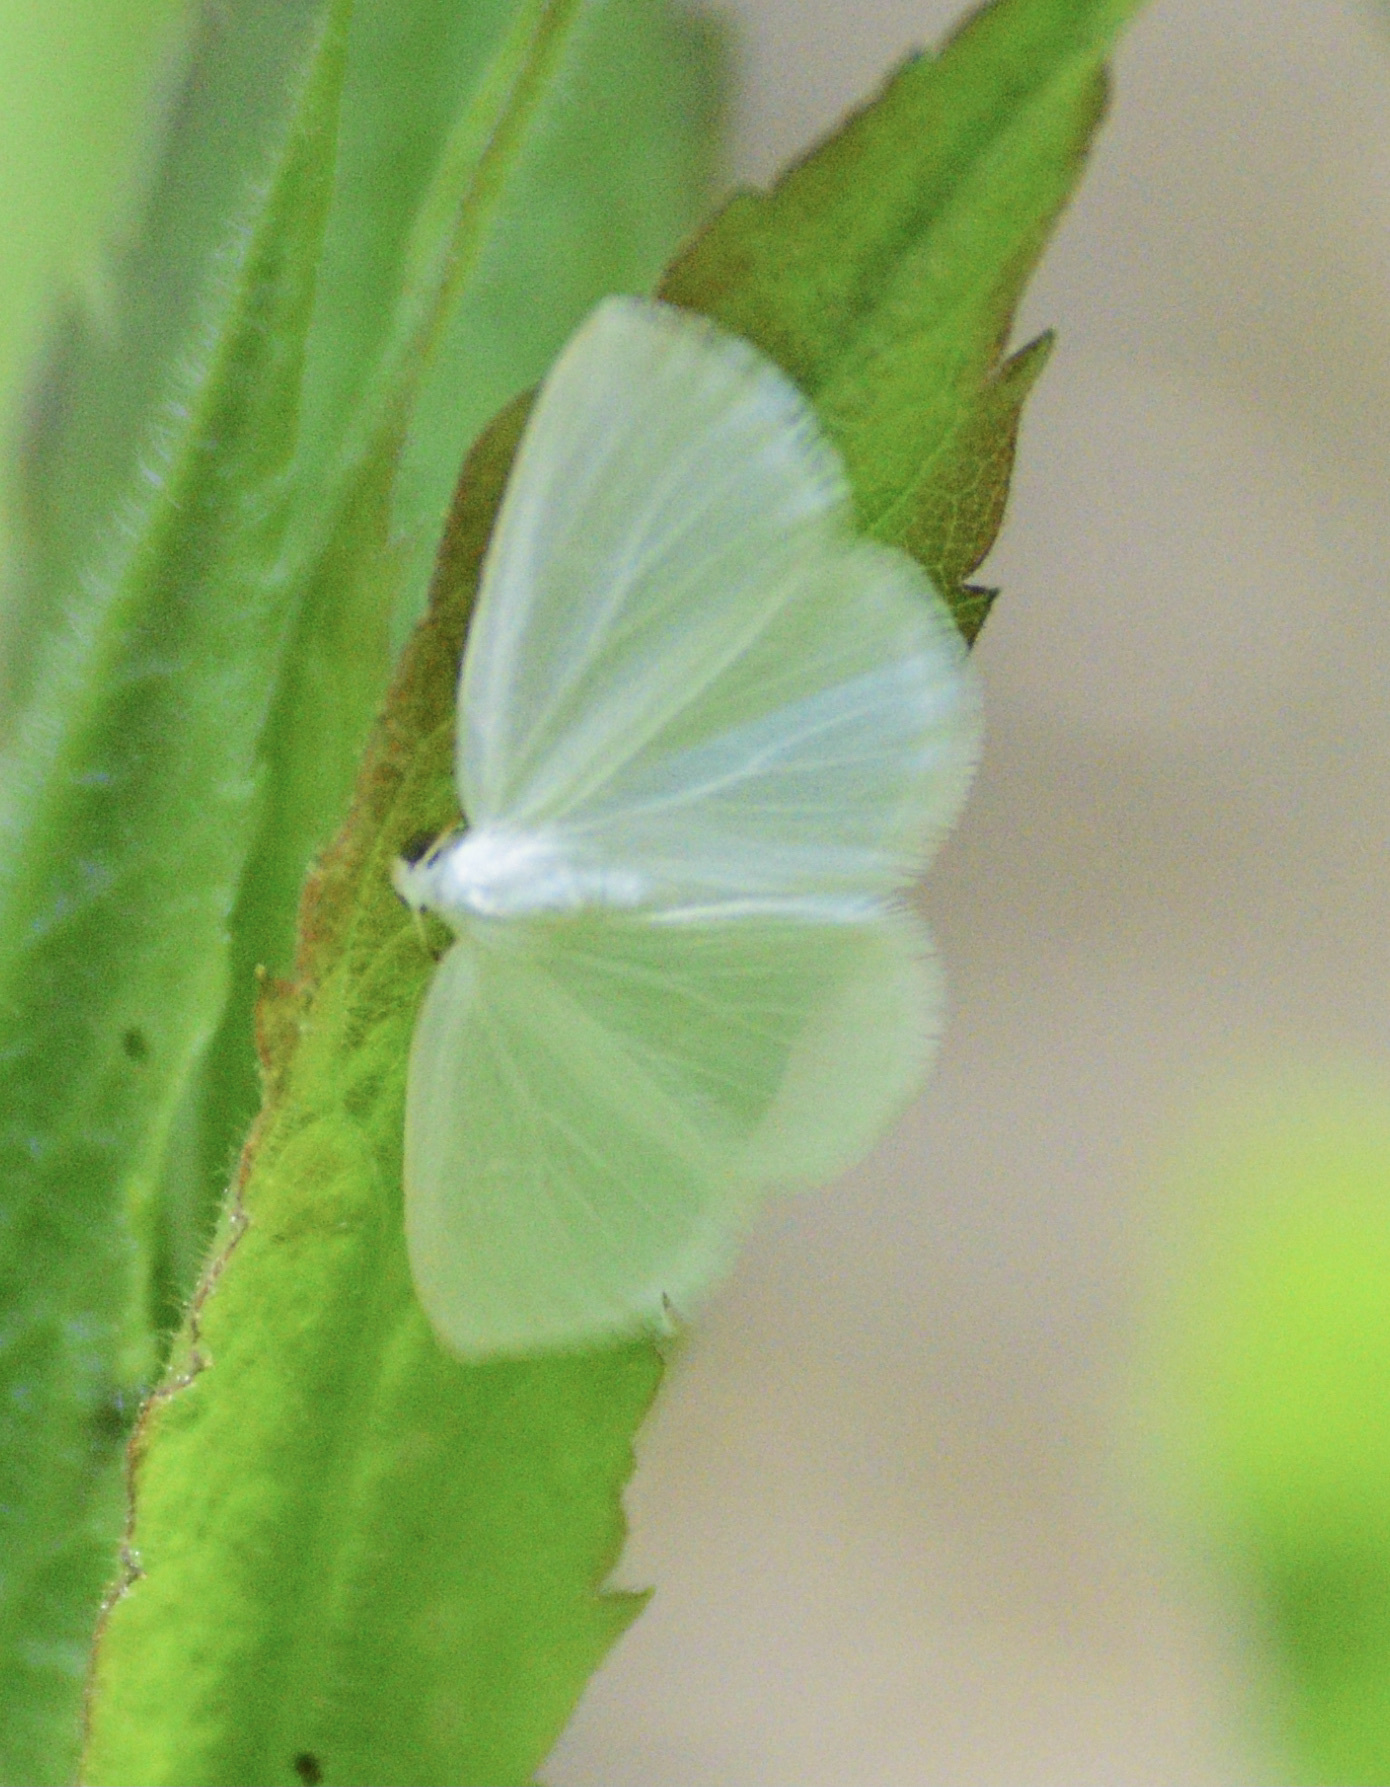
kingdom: Animalia
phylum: Arthropoda
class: Insecta
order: Lepidoptera
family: Geometridae
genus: Lomographa
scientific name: Lomographa vestaliata
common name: White spring moth
